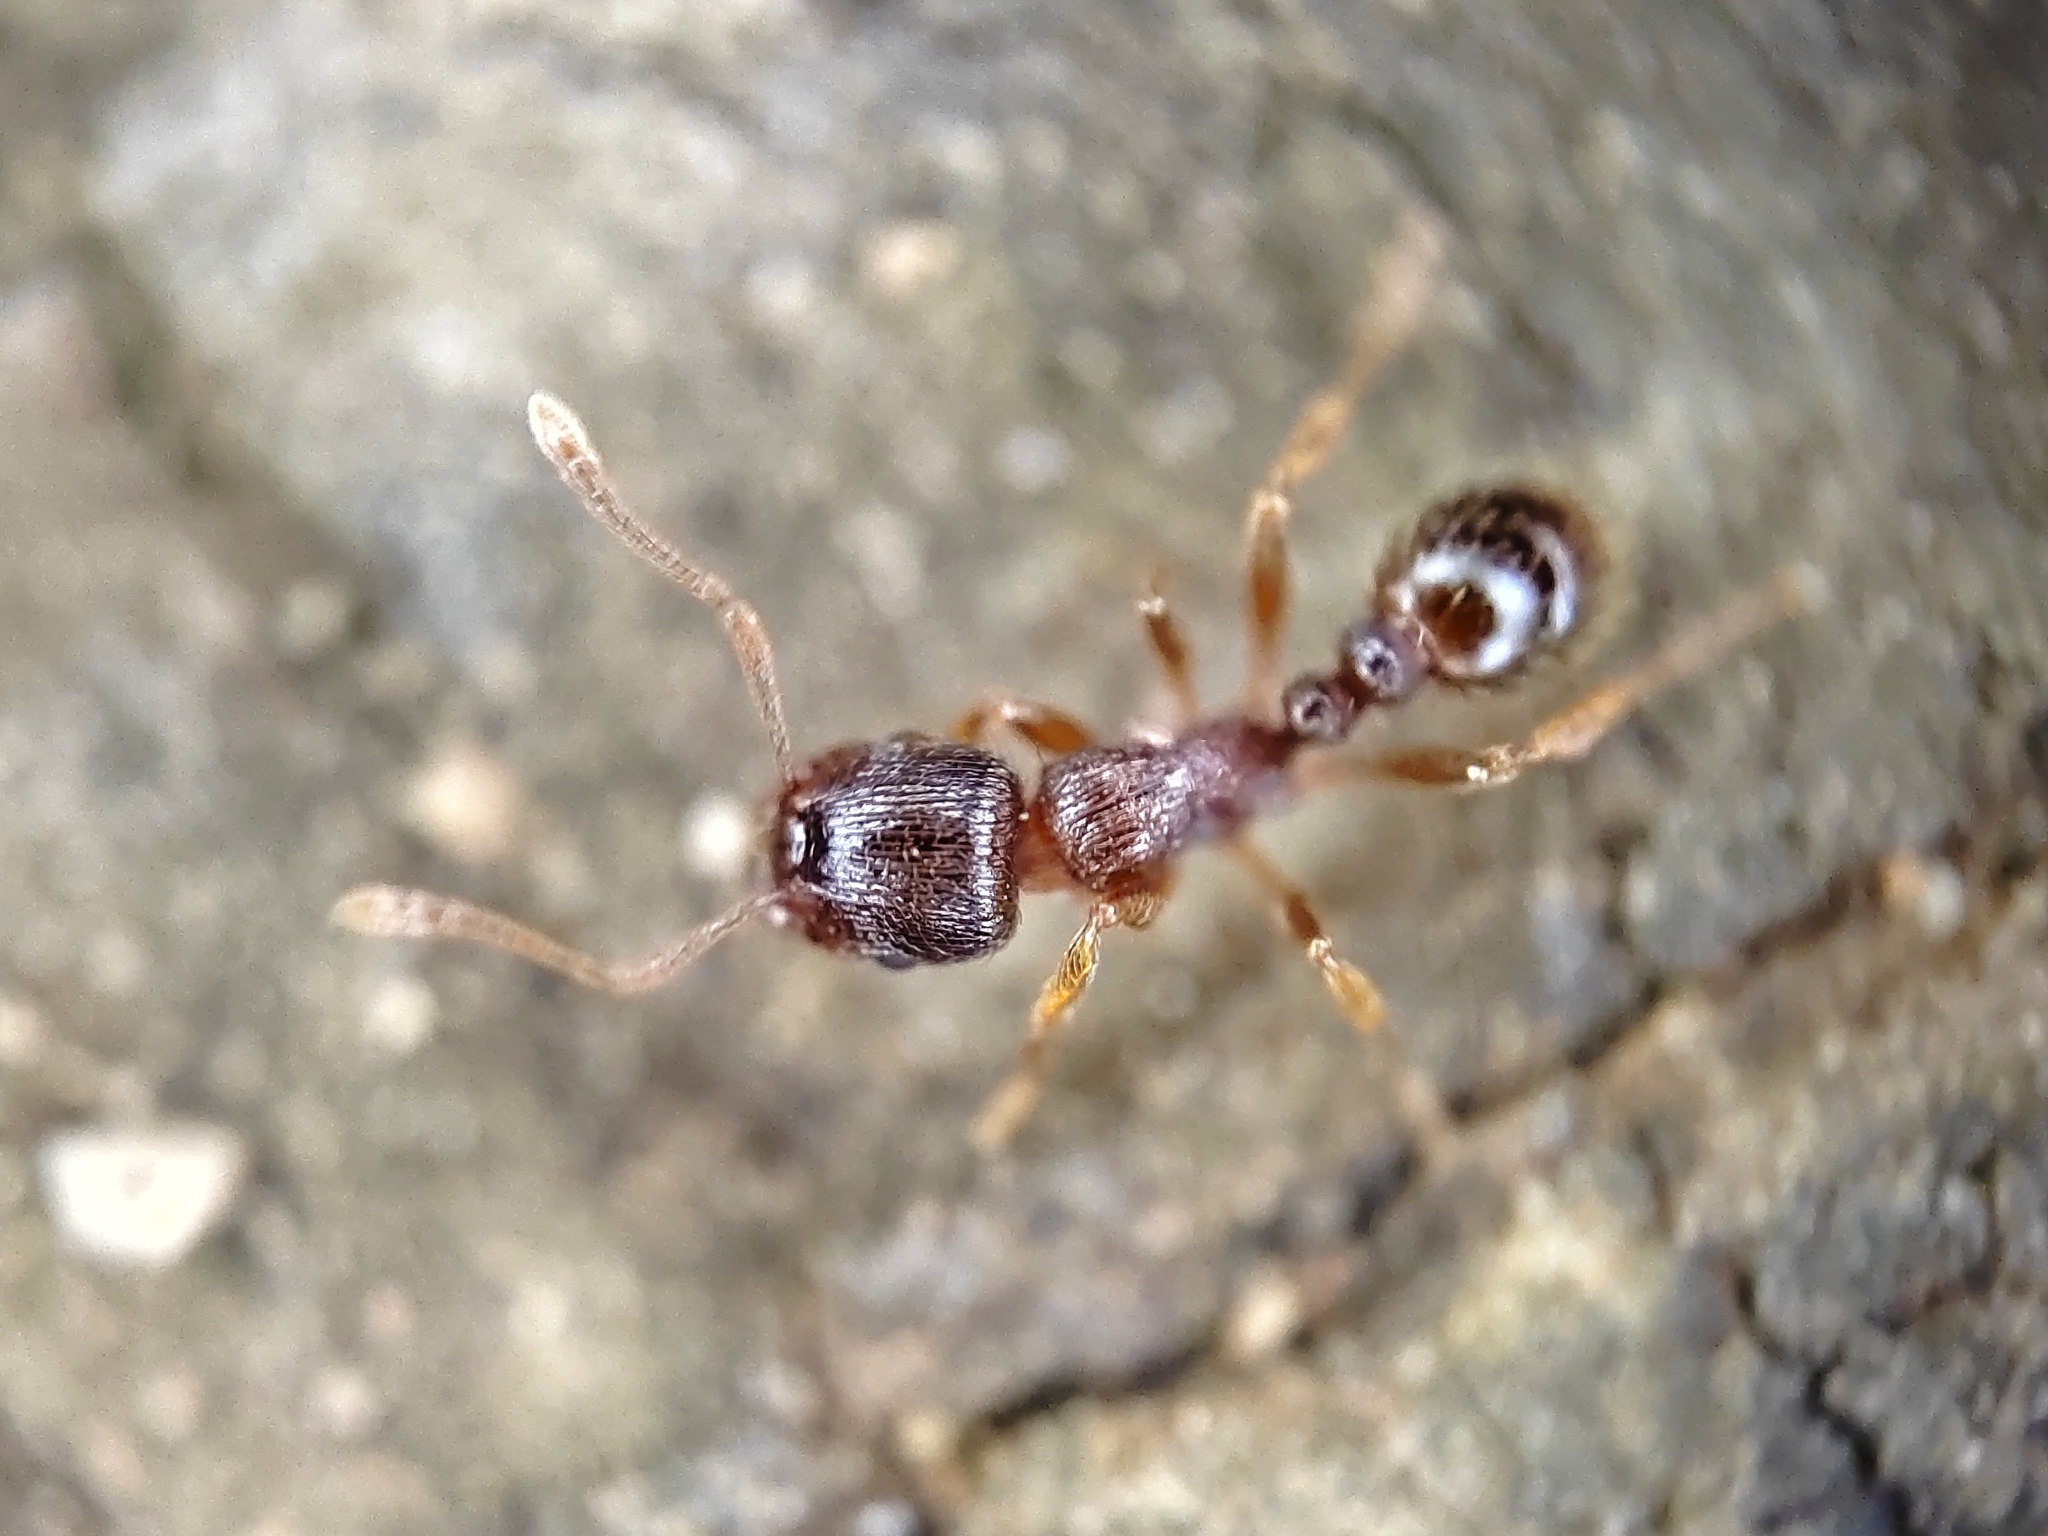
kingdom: Animalia
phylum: Arthropoda
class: Insecta
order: Hymenoptera
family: Formicidae
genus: Tetramorium
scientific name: Tetramorium
